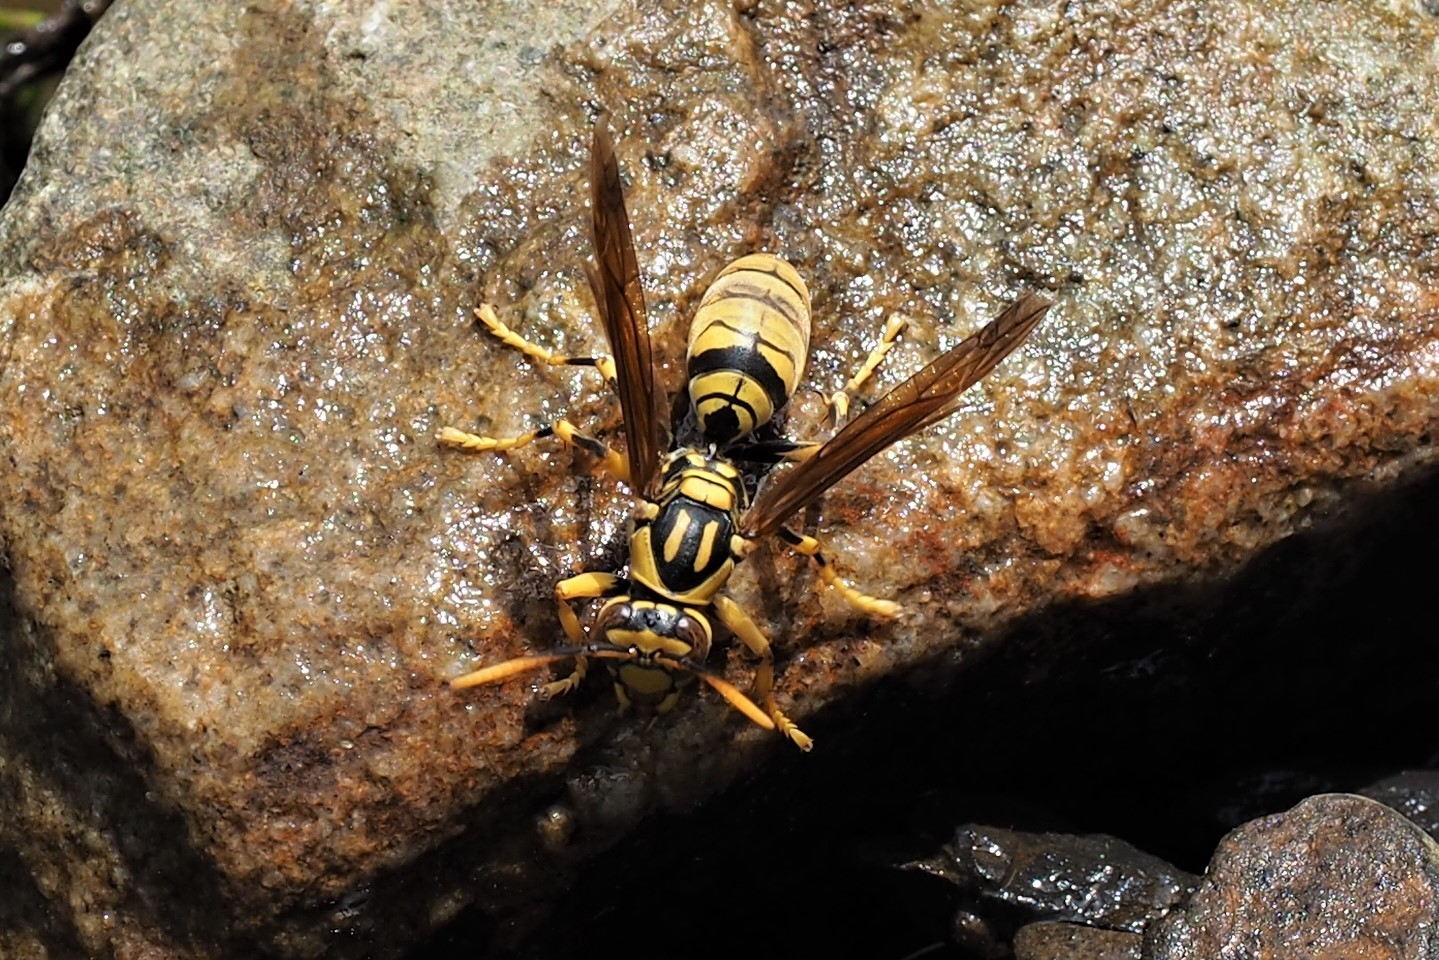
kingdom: Animalia
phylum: Arthropoda
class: Insecta
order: Hymenoptera
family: Eumenidae
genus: Polistes
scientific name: Polistes rothneyi
